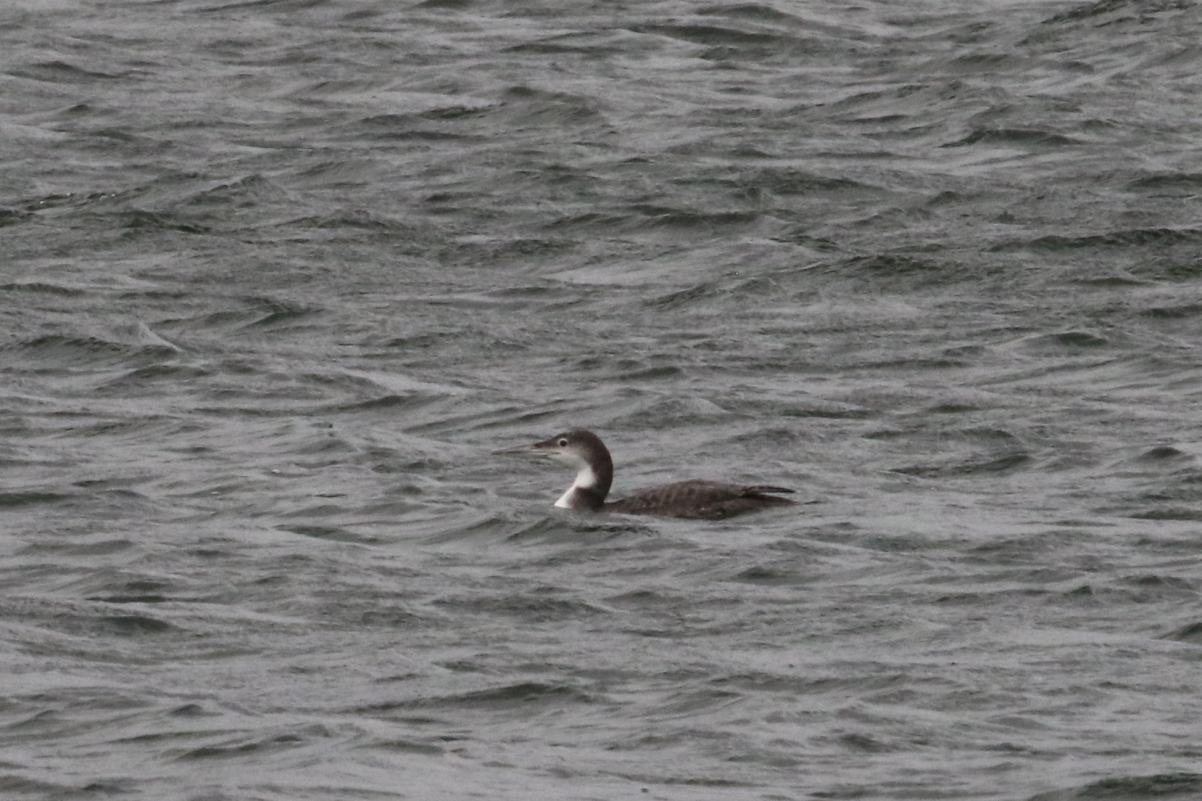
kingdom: Animalia
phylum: Chordata
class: Aves
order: Gaviiformes
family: Gaviidae
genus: Gavia
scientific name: Gavia immer
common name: Common loon
